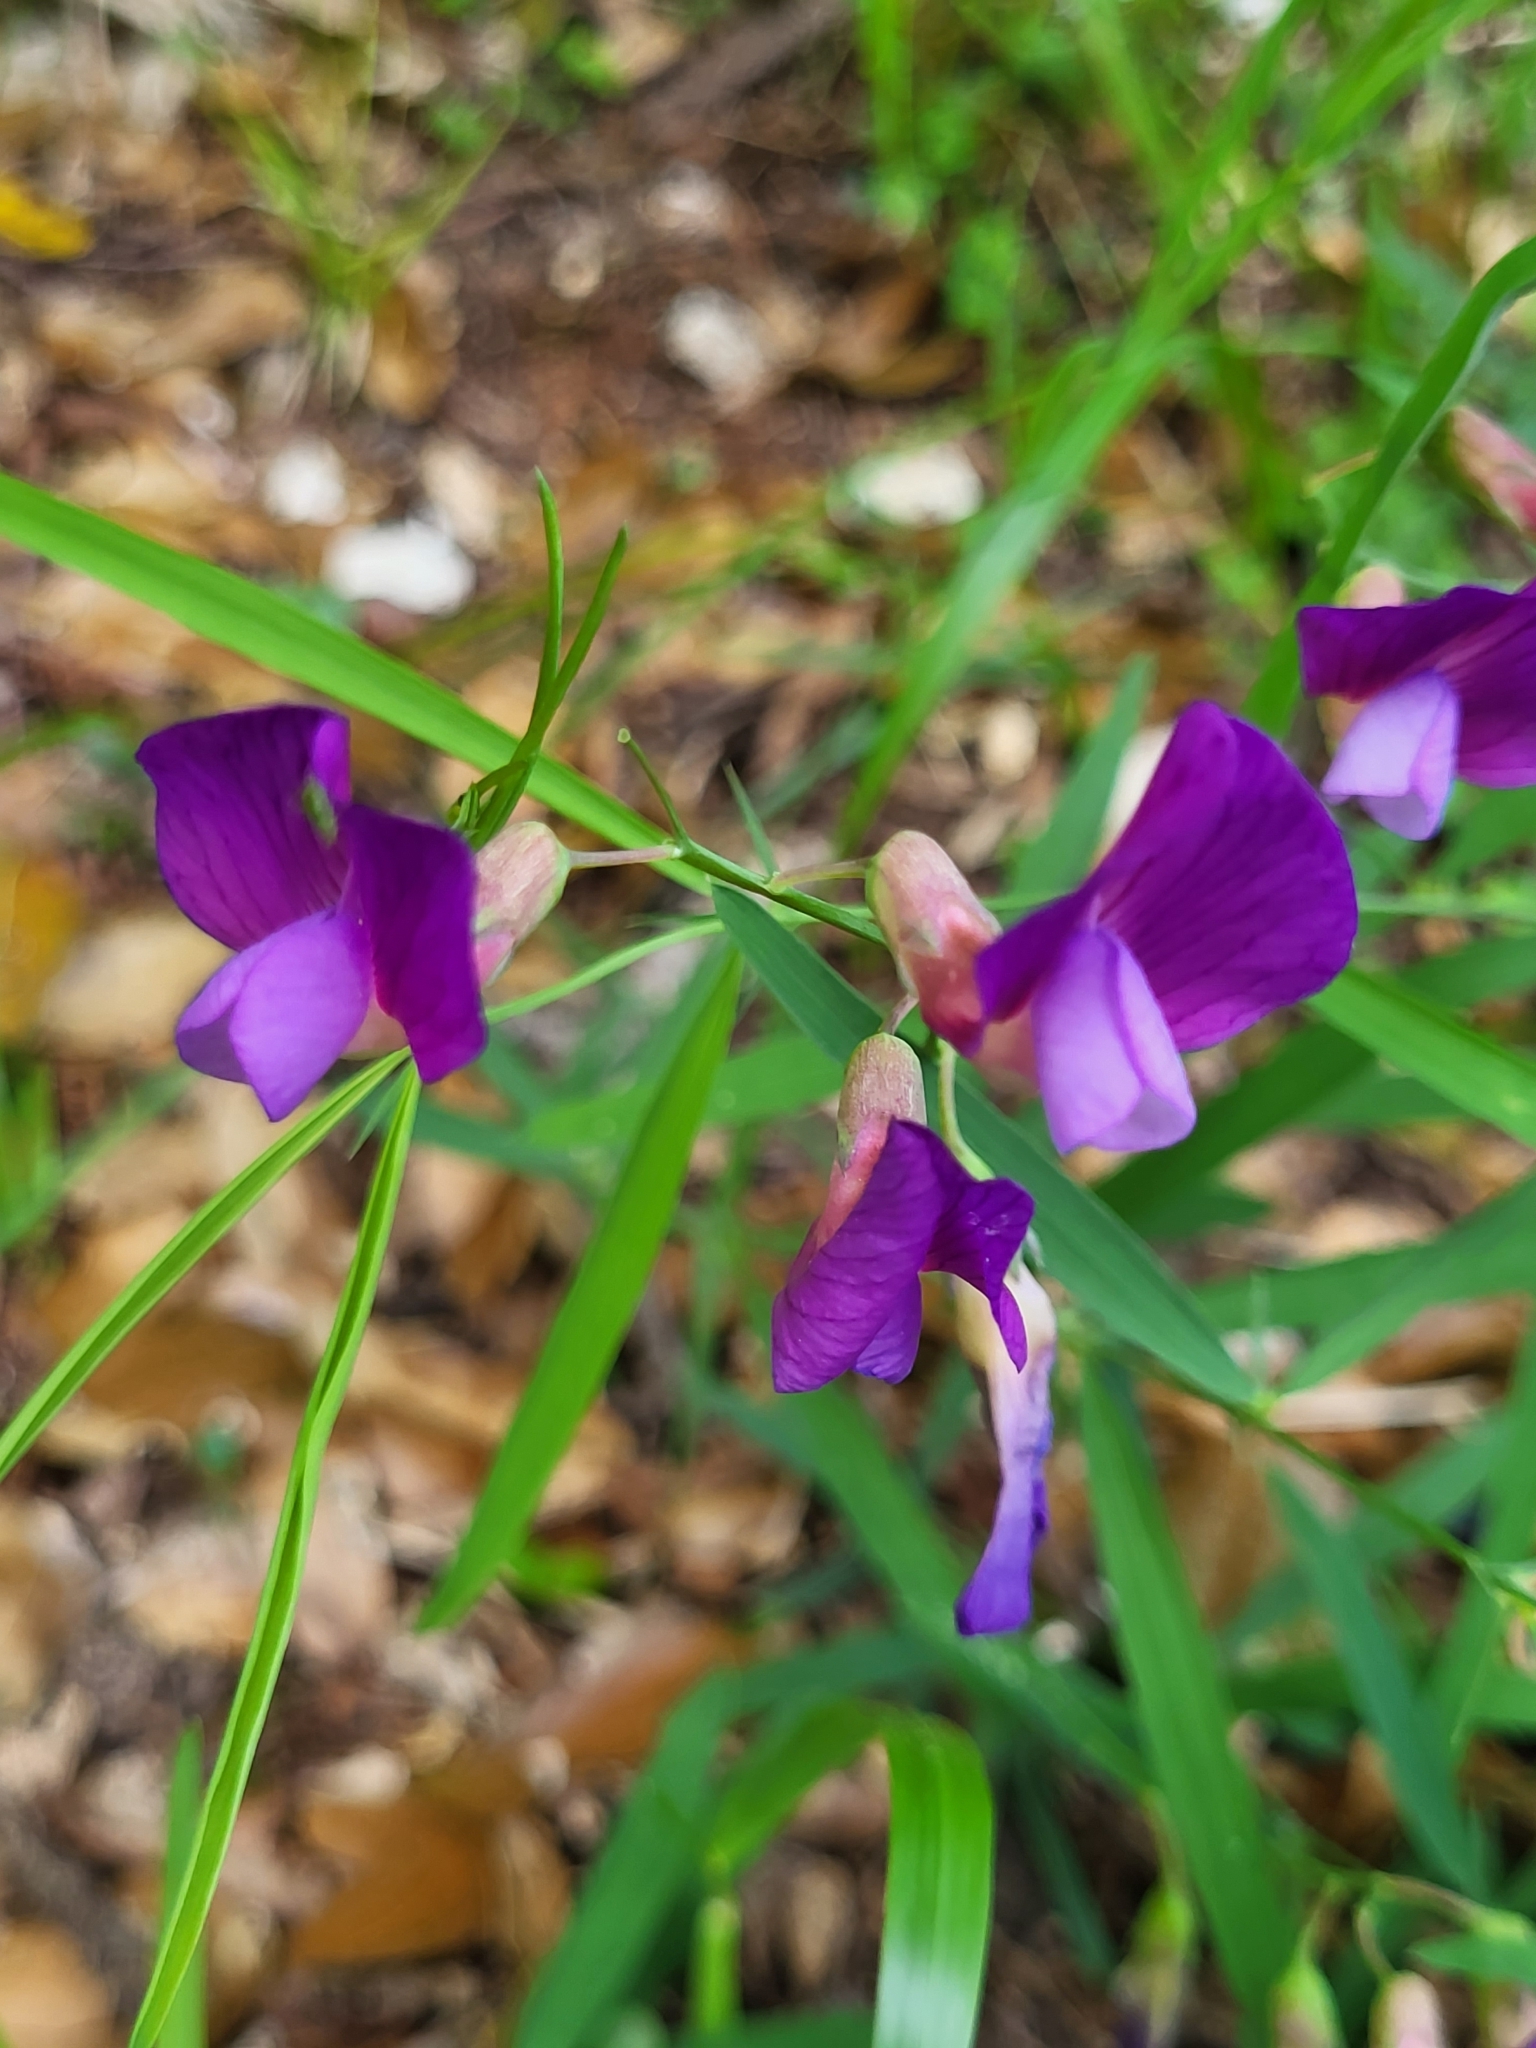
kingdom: Plantae
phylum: Tracheophyta
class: Magnoliopsida
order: Fabales
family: Fabaceae
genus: Lathyrus
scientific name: Lathyrus digitatus
